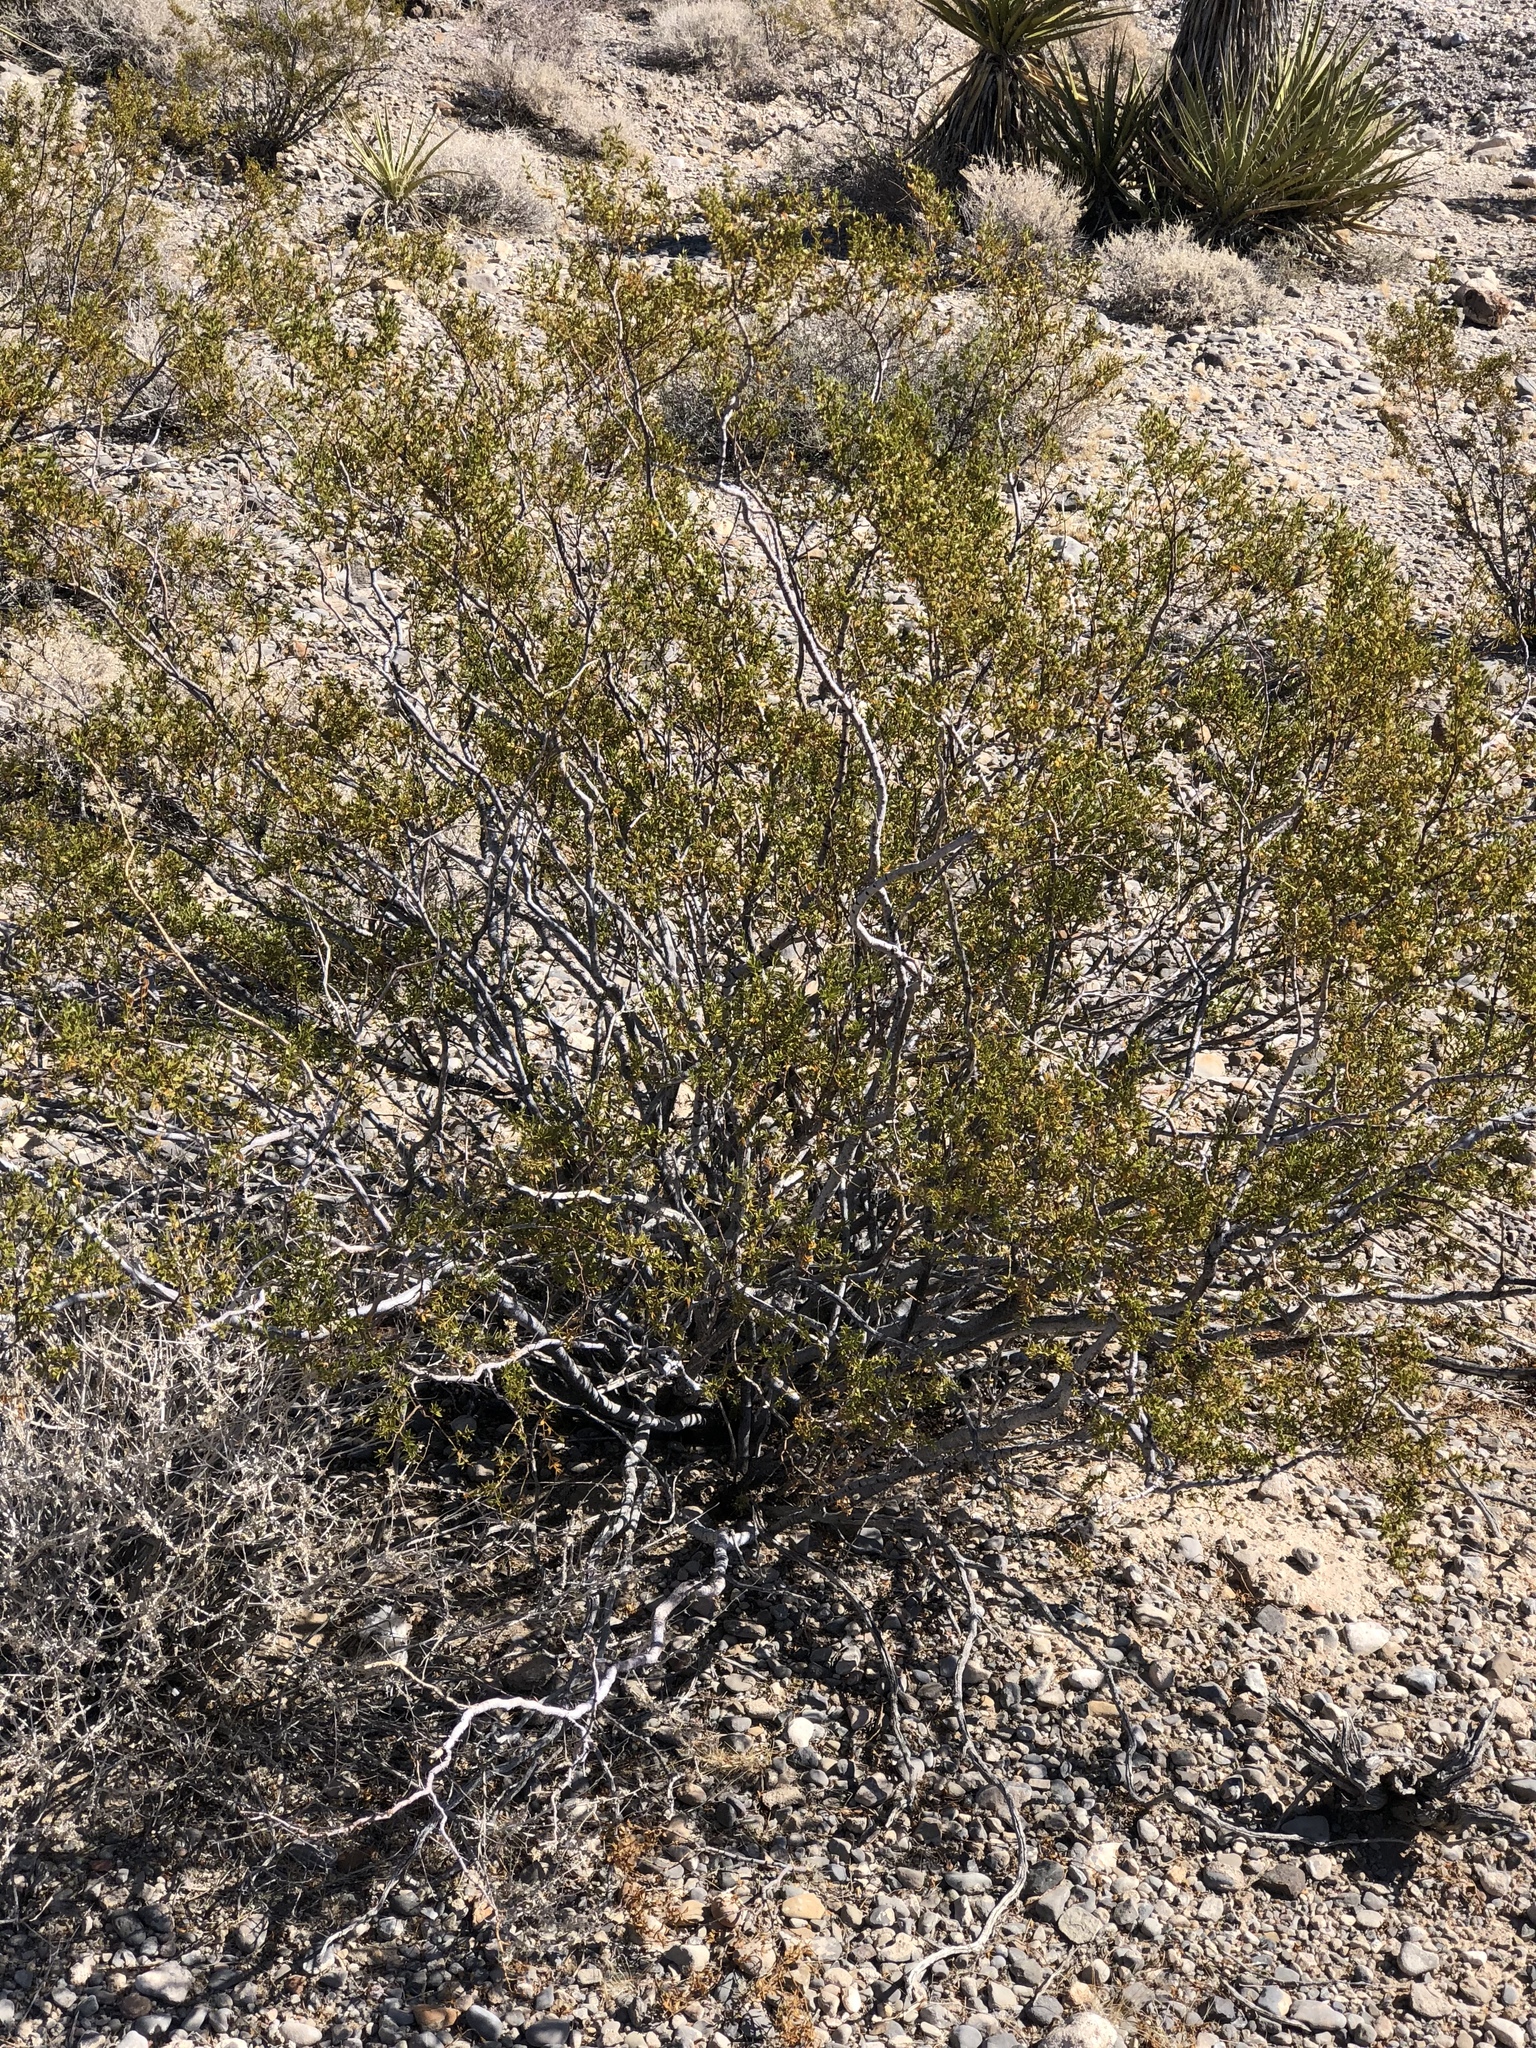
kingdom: Plantae
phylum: Tracheophyta
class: Magnoliopsida
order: Zygophyllales
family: Zygophyllaceae
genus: Larrea
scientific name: Larrea tridentata
